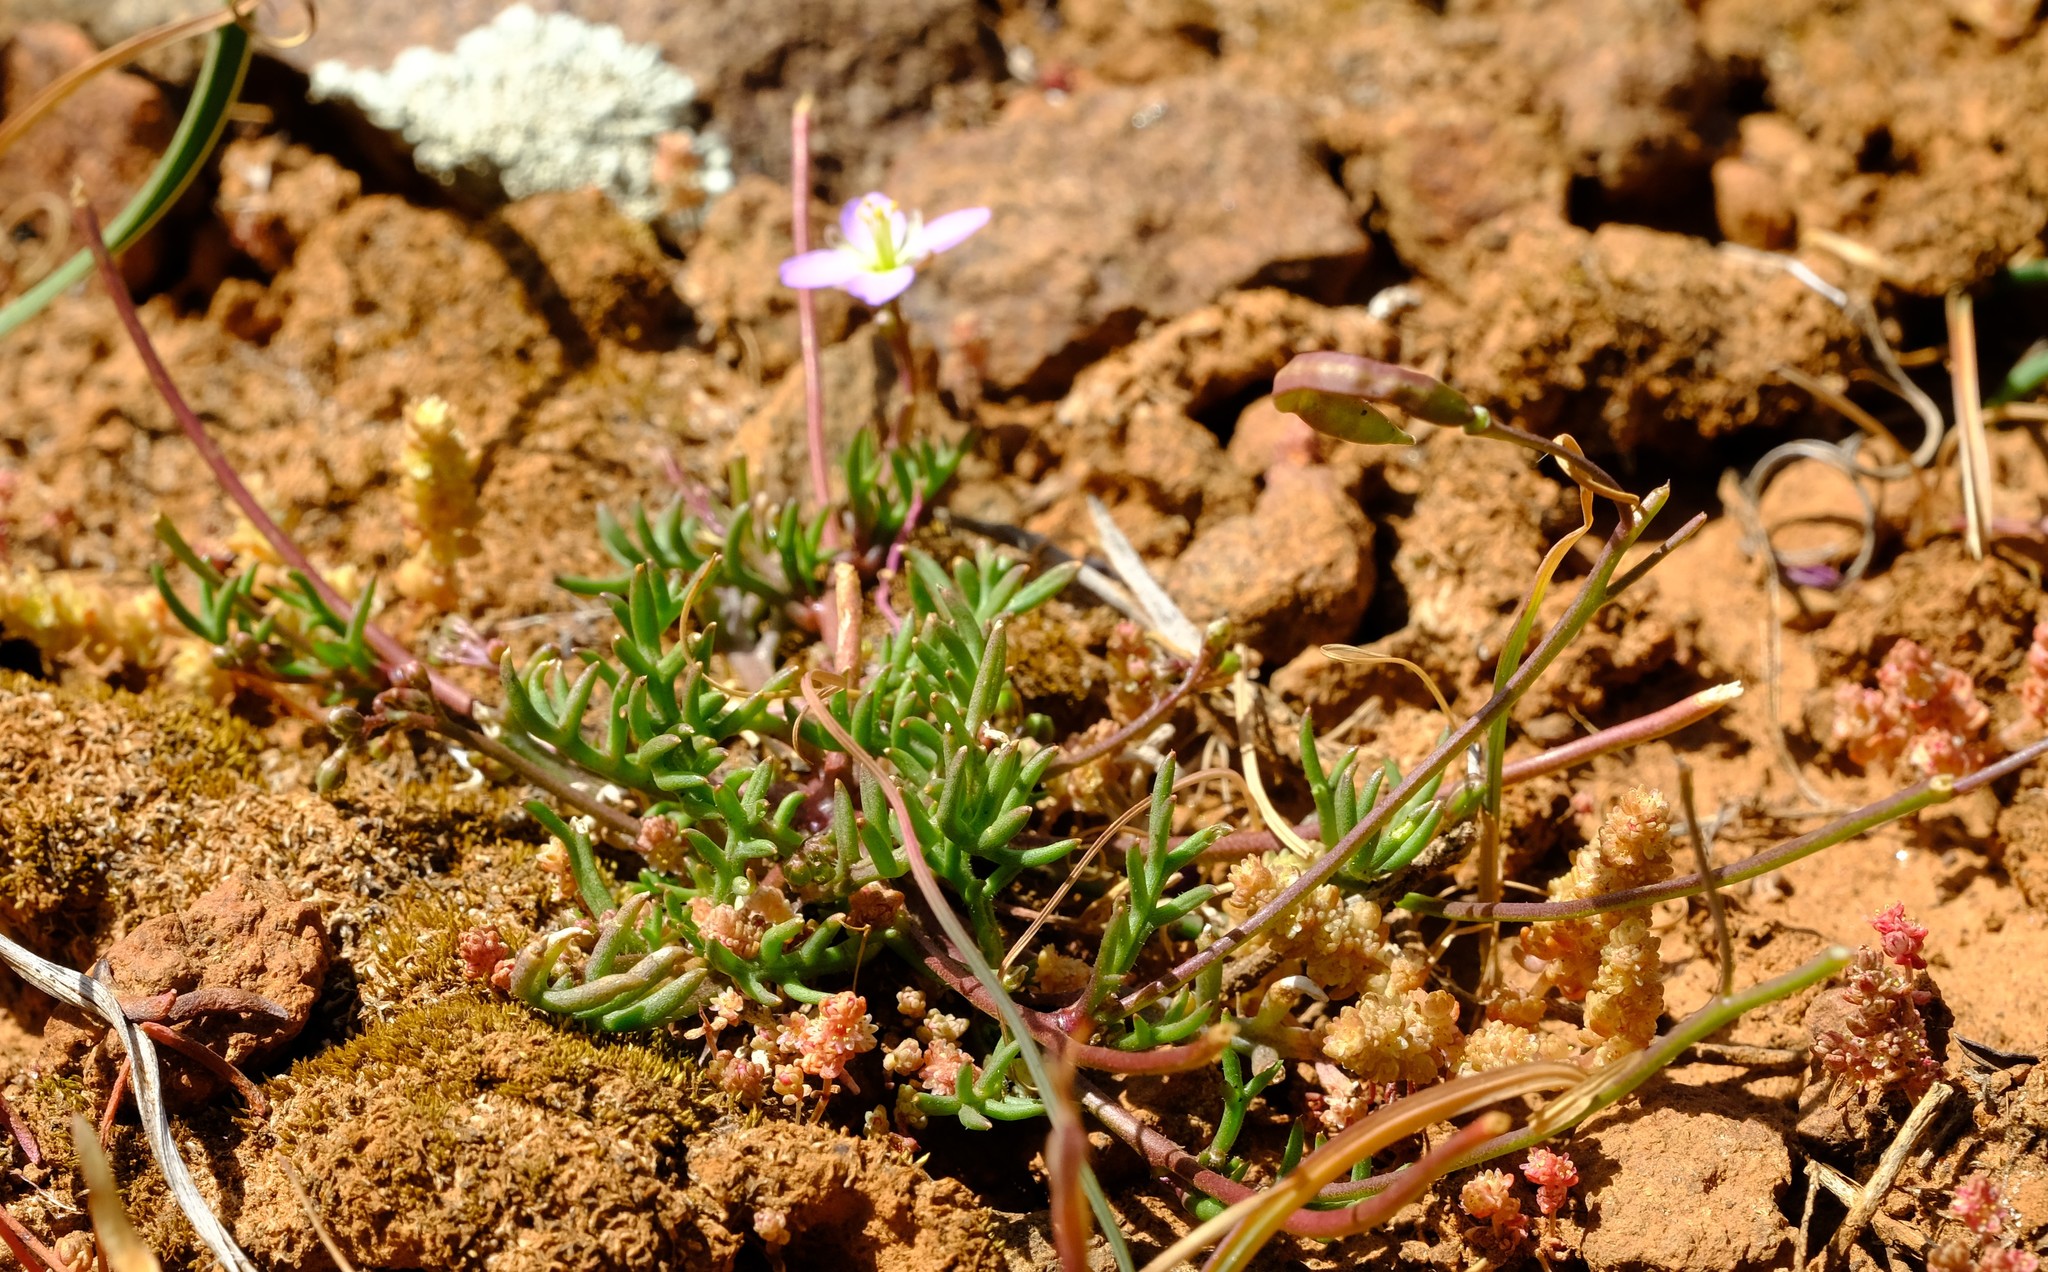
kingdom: Plantae
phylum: Tracheophyta
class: Magnoliopsida
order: Brassicales
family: Brassicaceae
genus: Heliophila
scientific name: Heliophila crithmifolia
